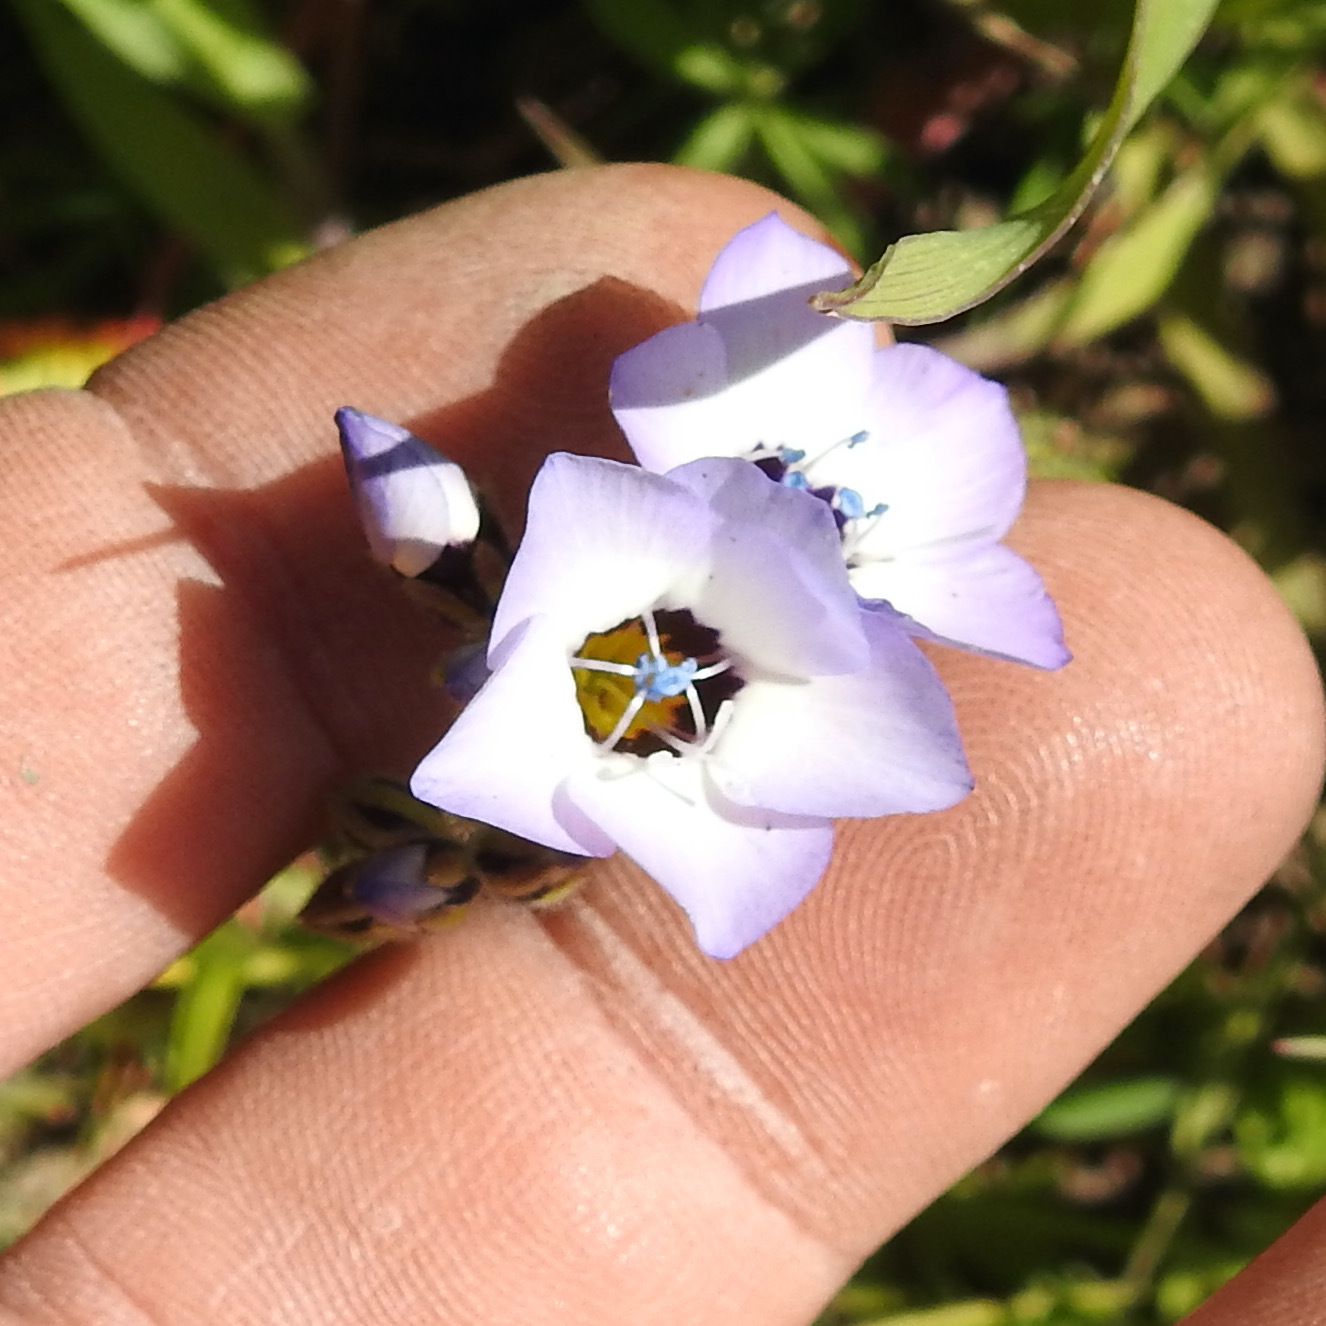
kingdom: Plantae
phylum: Tracheophyta
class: Magnoliopsida
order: Ericales
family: Polemoniaceae
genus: Gilia
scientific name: Gilia tricolor
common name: Bird's-eyes
